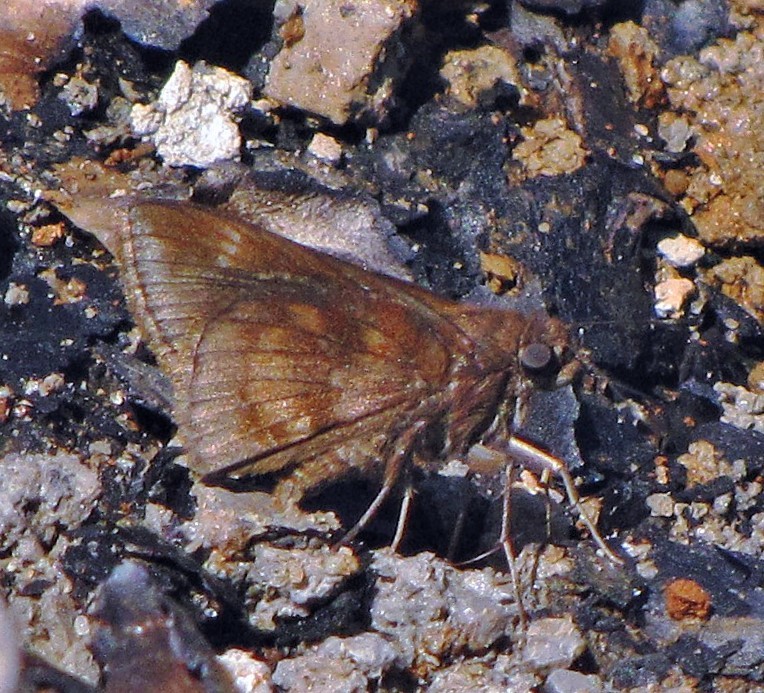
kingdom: Animalia
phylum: Arthropoda
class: Insecta
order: Lepidoptera
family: Hesperiidae
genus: Quinta
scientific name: Quinta cannae
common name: Canna skipper
